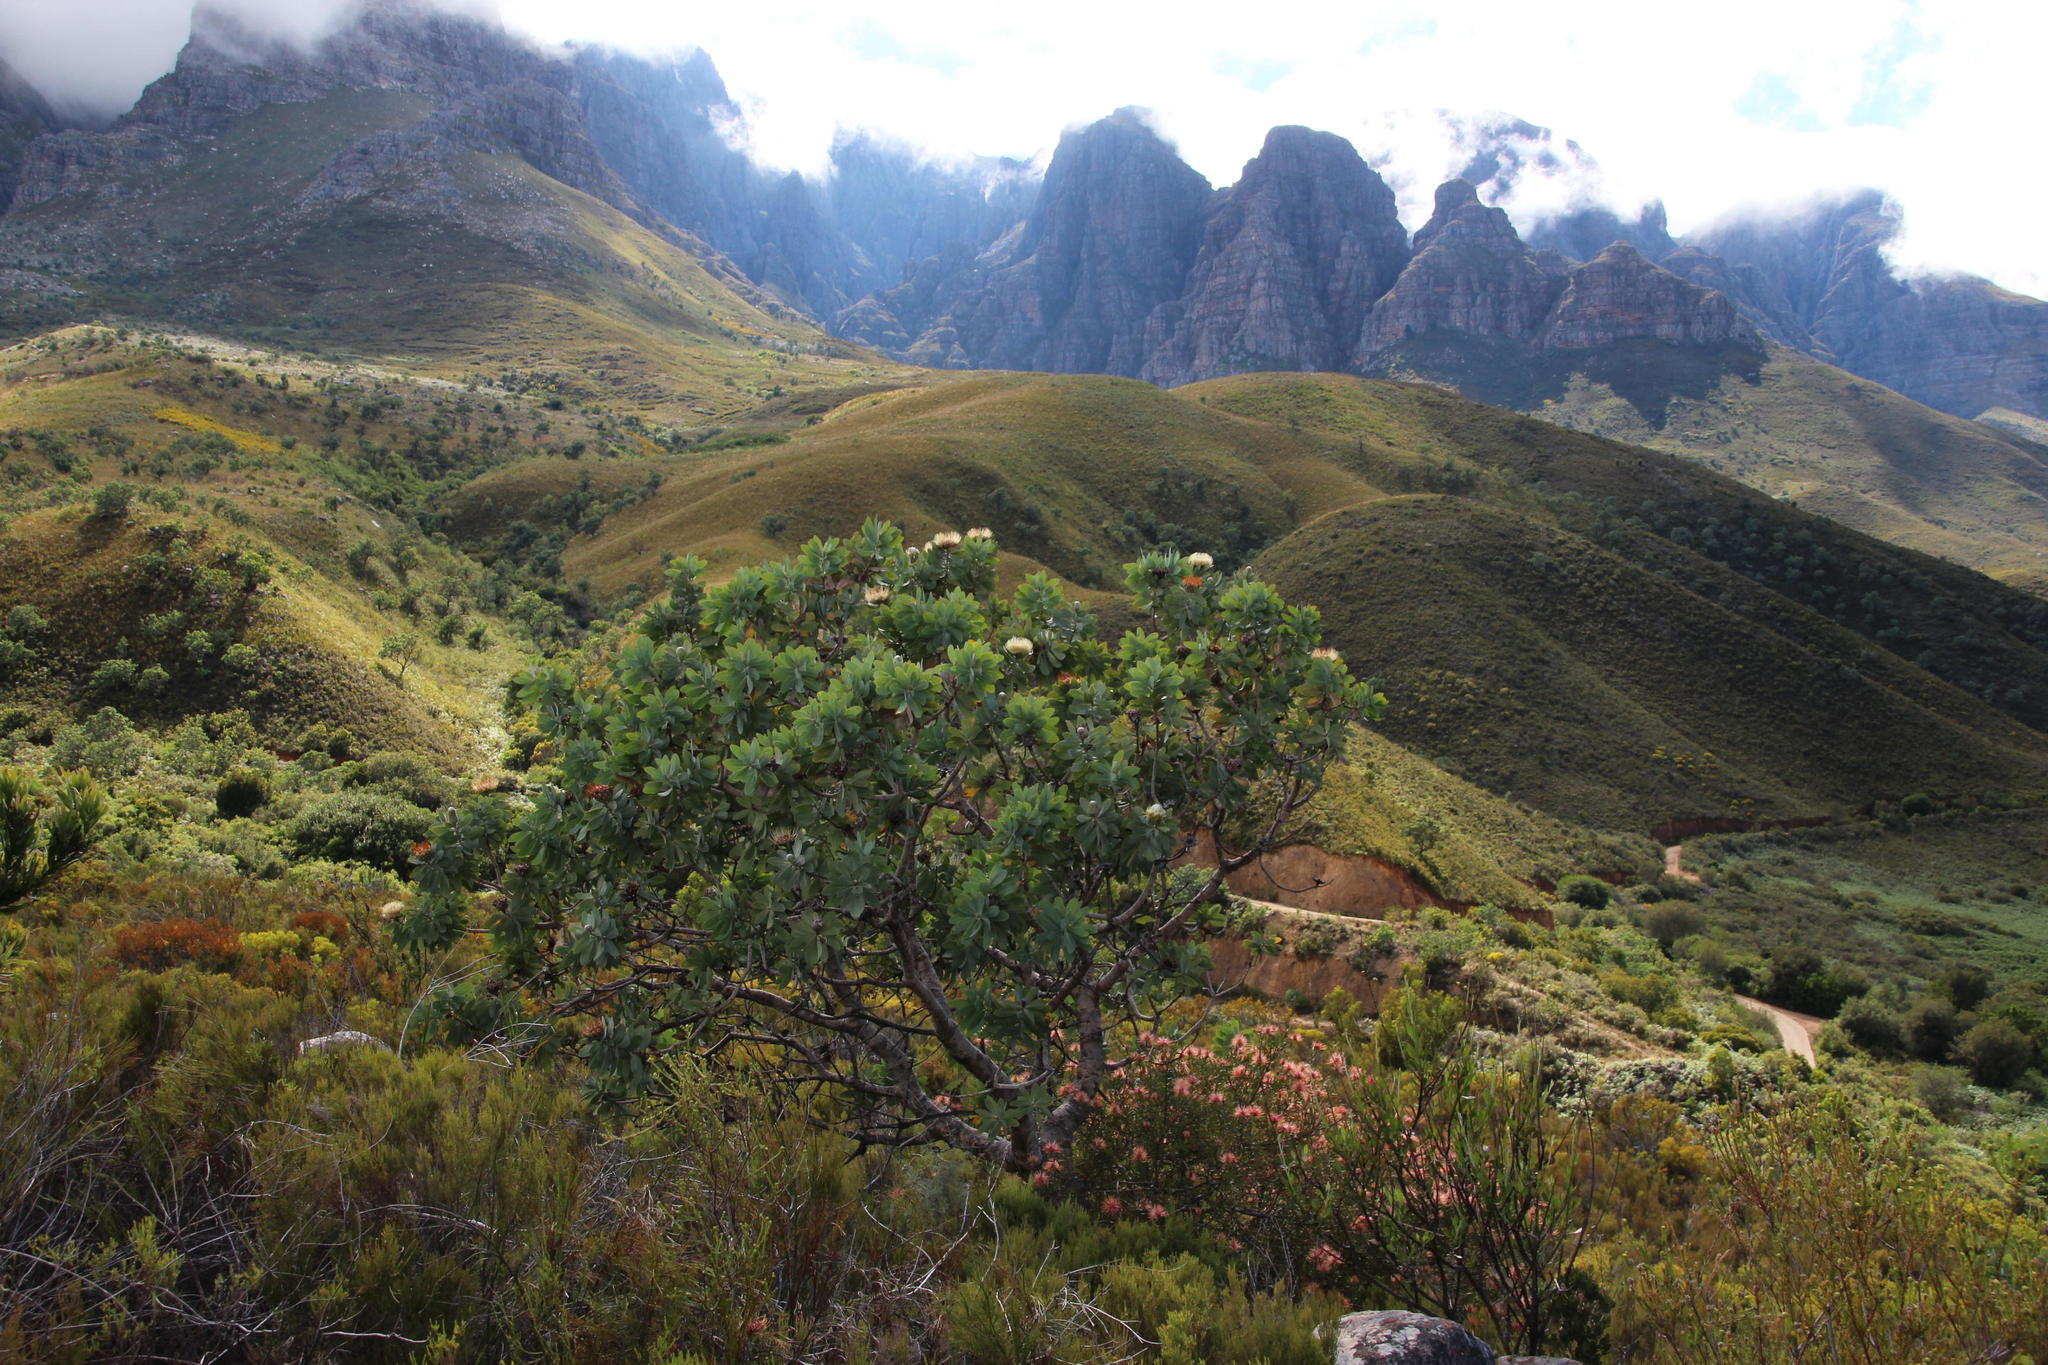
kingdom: Plantae
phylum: Tracheophyta
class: Magnoliopsida
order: Proteales
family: Proteaceae
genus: Protea
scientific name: Protea nitida
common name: Tree protea
